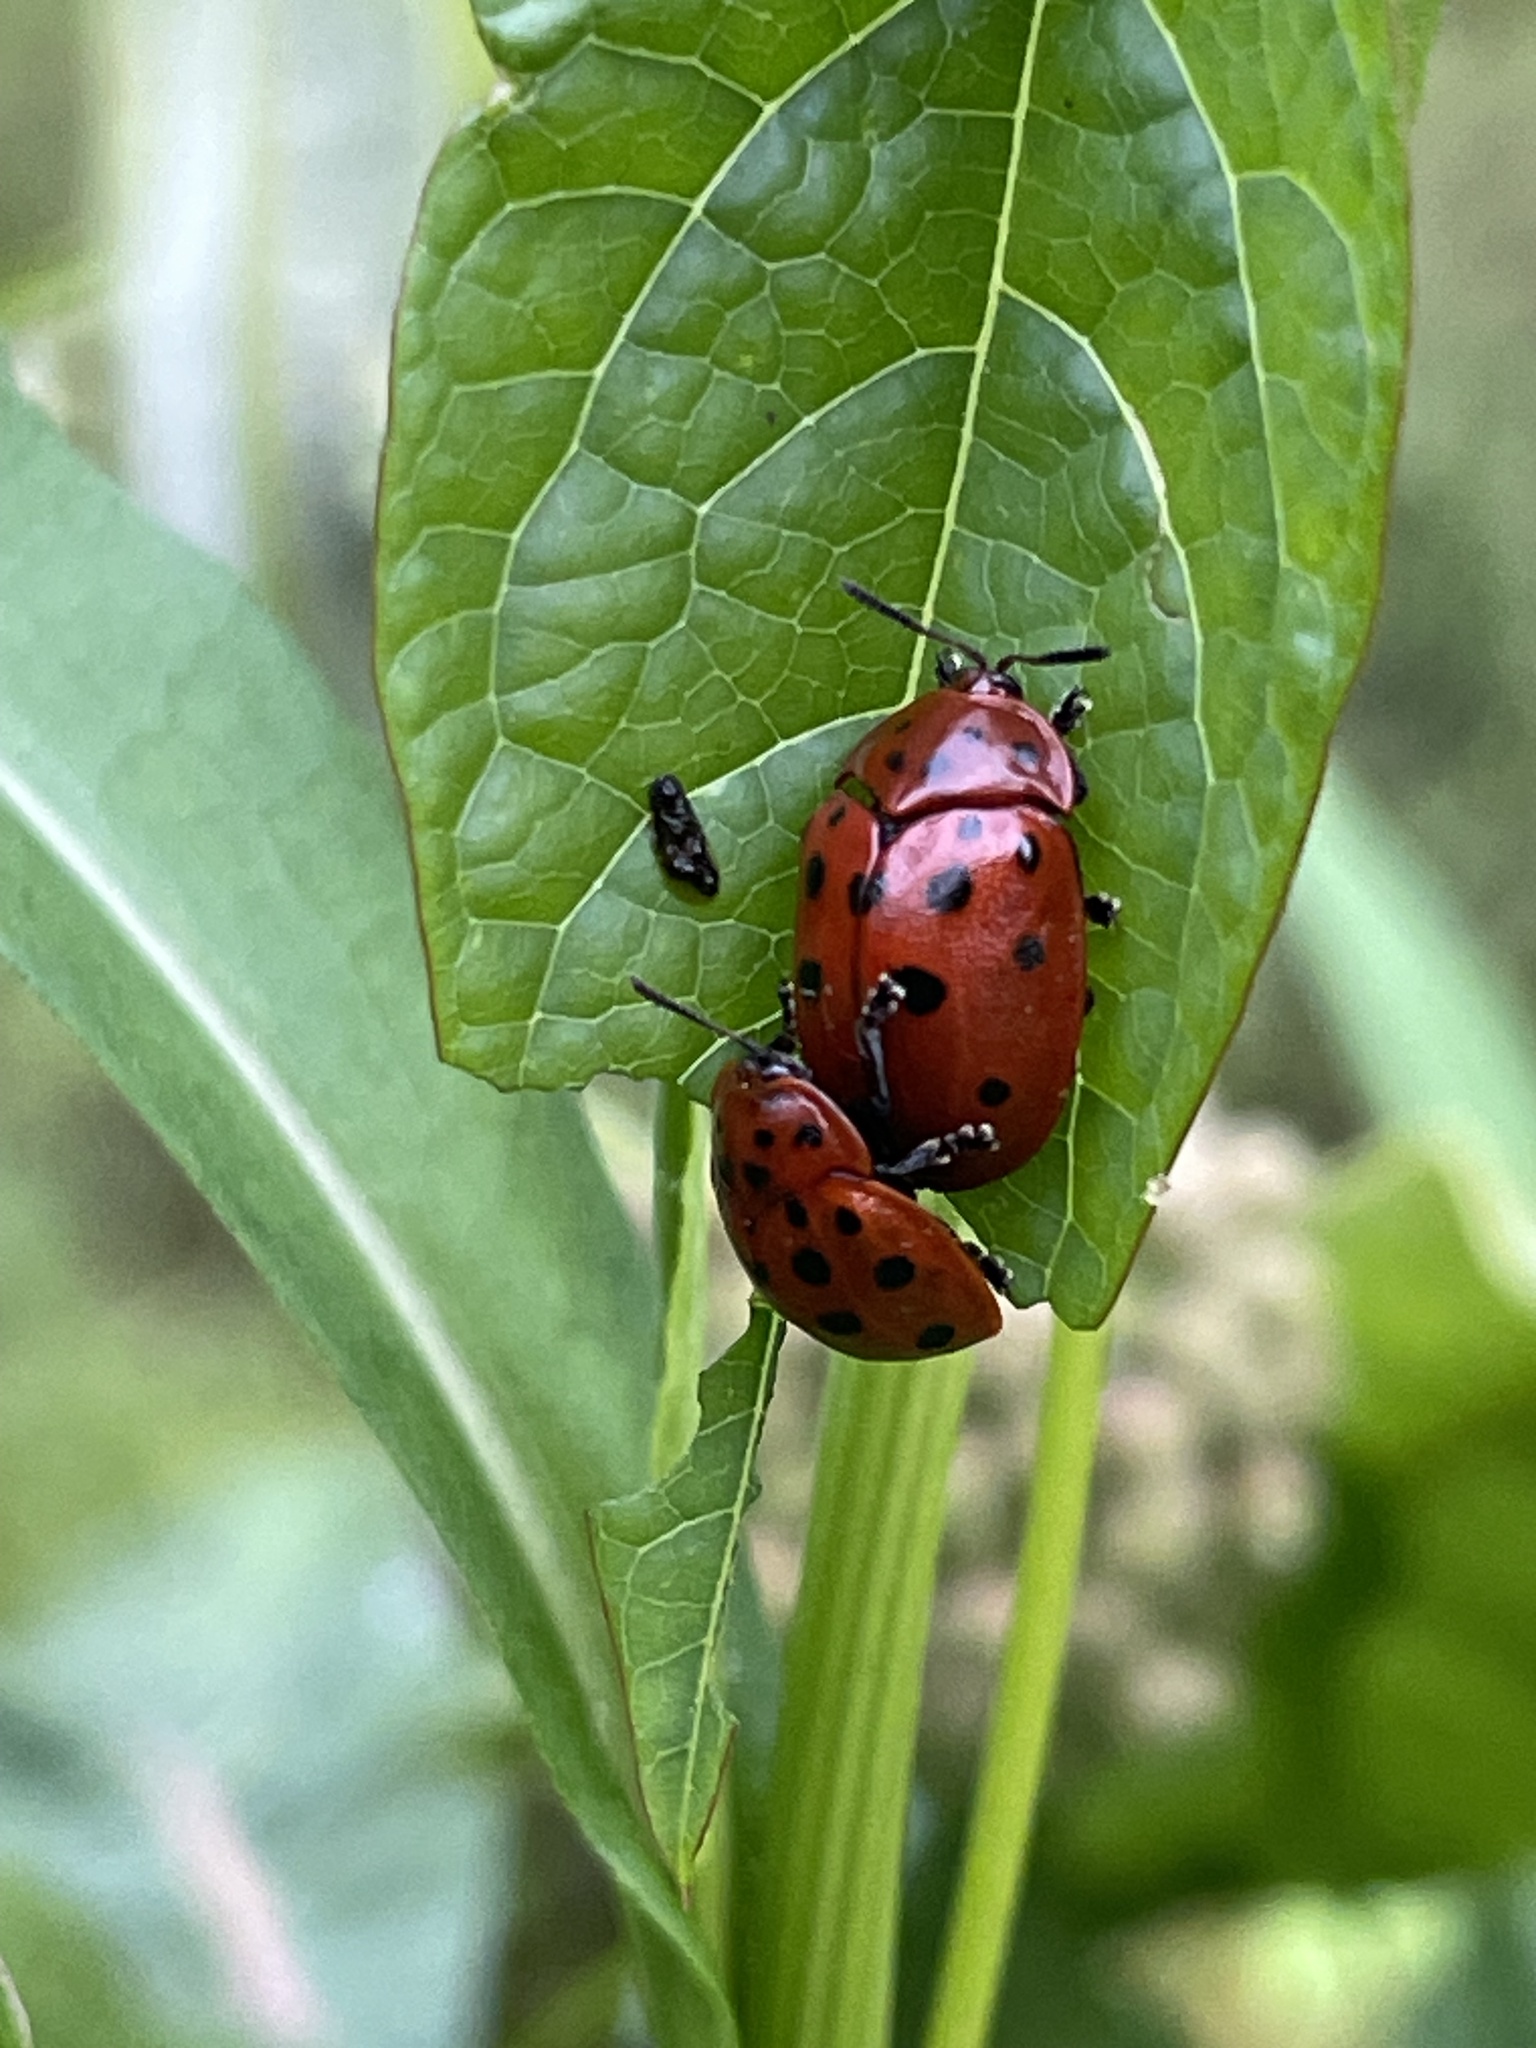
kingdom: Animalia
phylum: Arthropoda
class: Insecta
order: Coleoptera
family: Chrysomelidae
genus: Chelymorpha
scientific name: Chelymorpha cassidea
